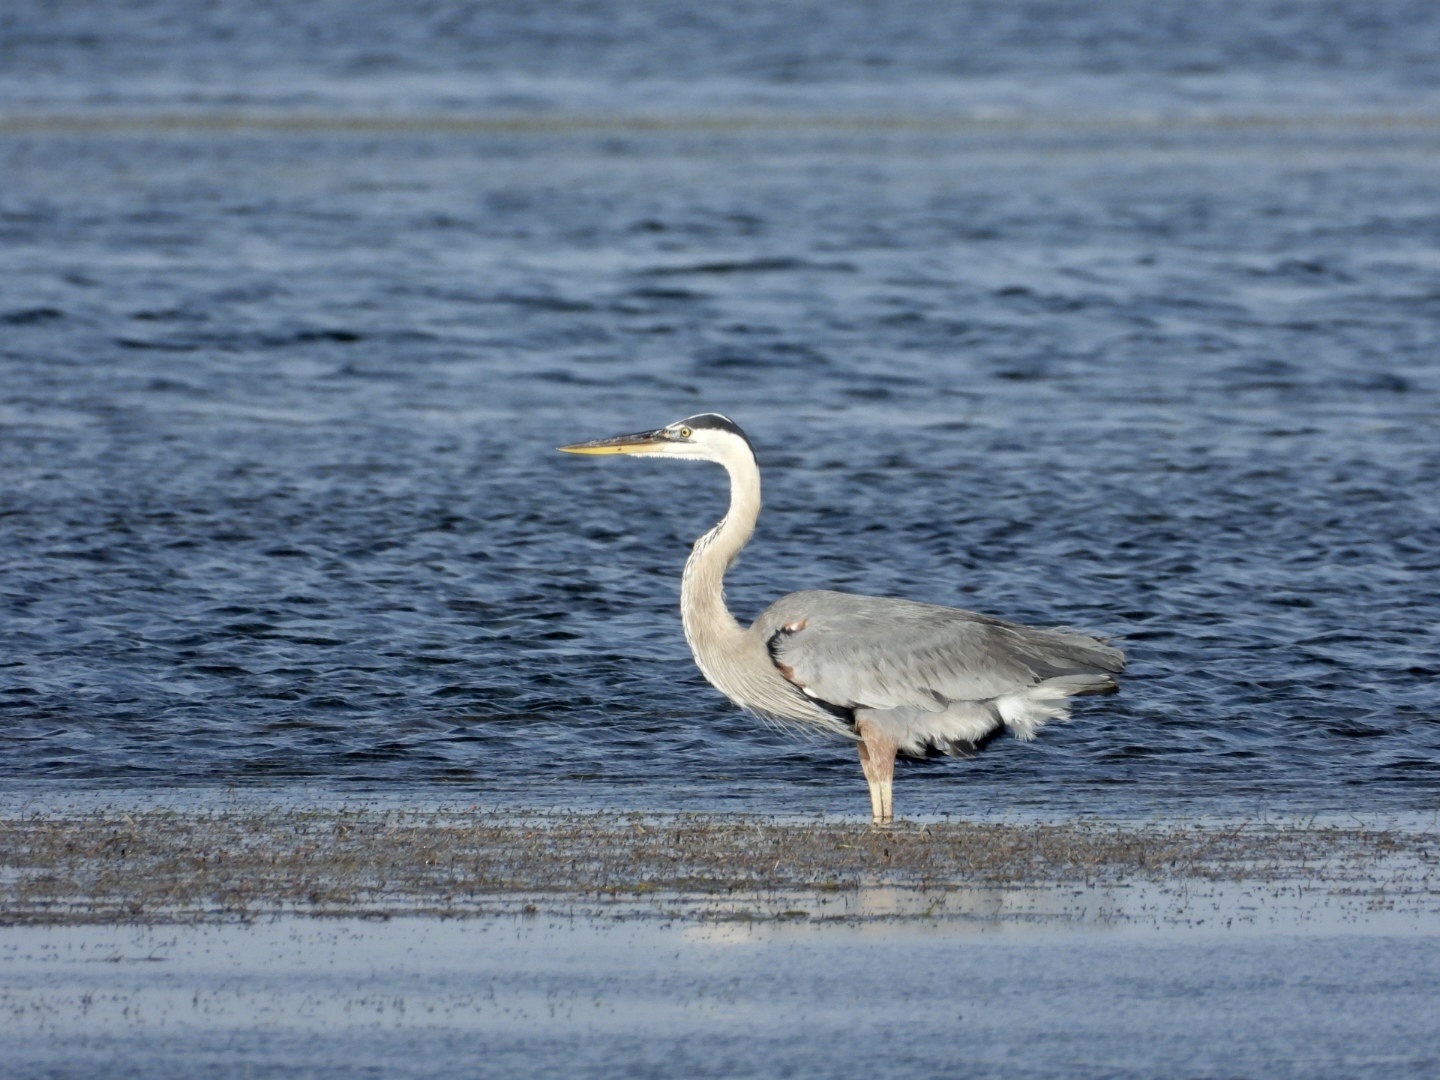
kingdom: Animalia
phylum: Chordata
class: Aves
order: Pelecaniformes
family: Ardeidae
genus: Ardea
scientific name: Ardea herodias
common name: Great blue heron
